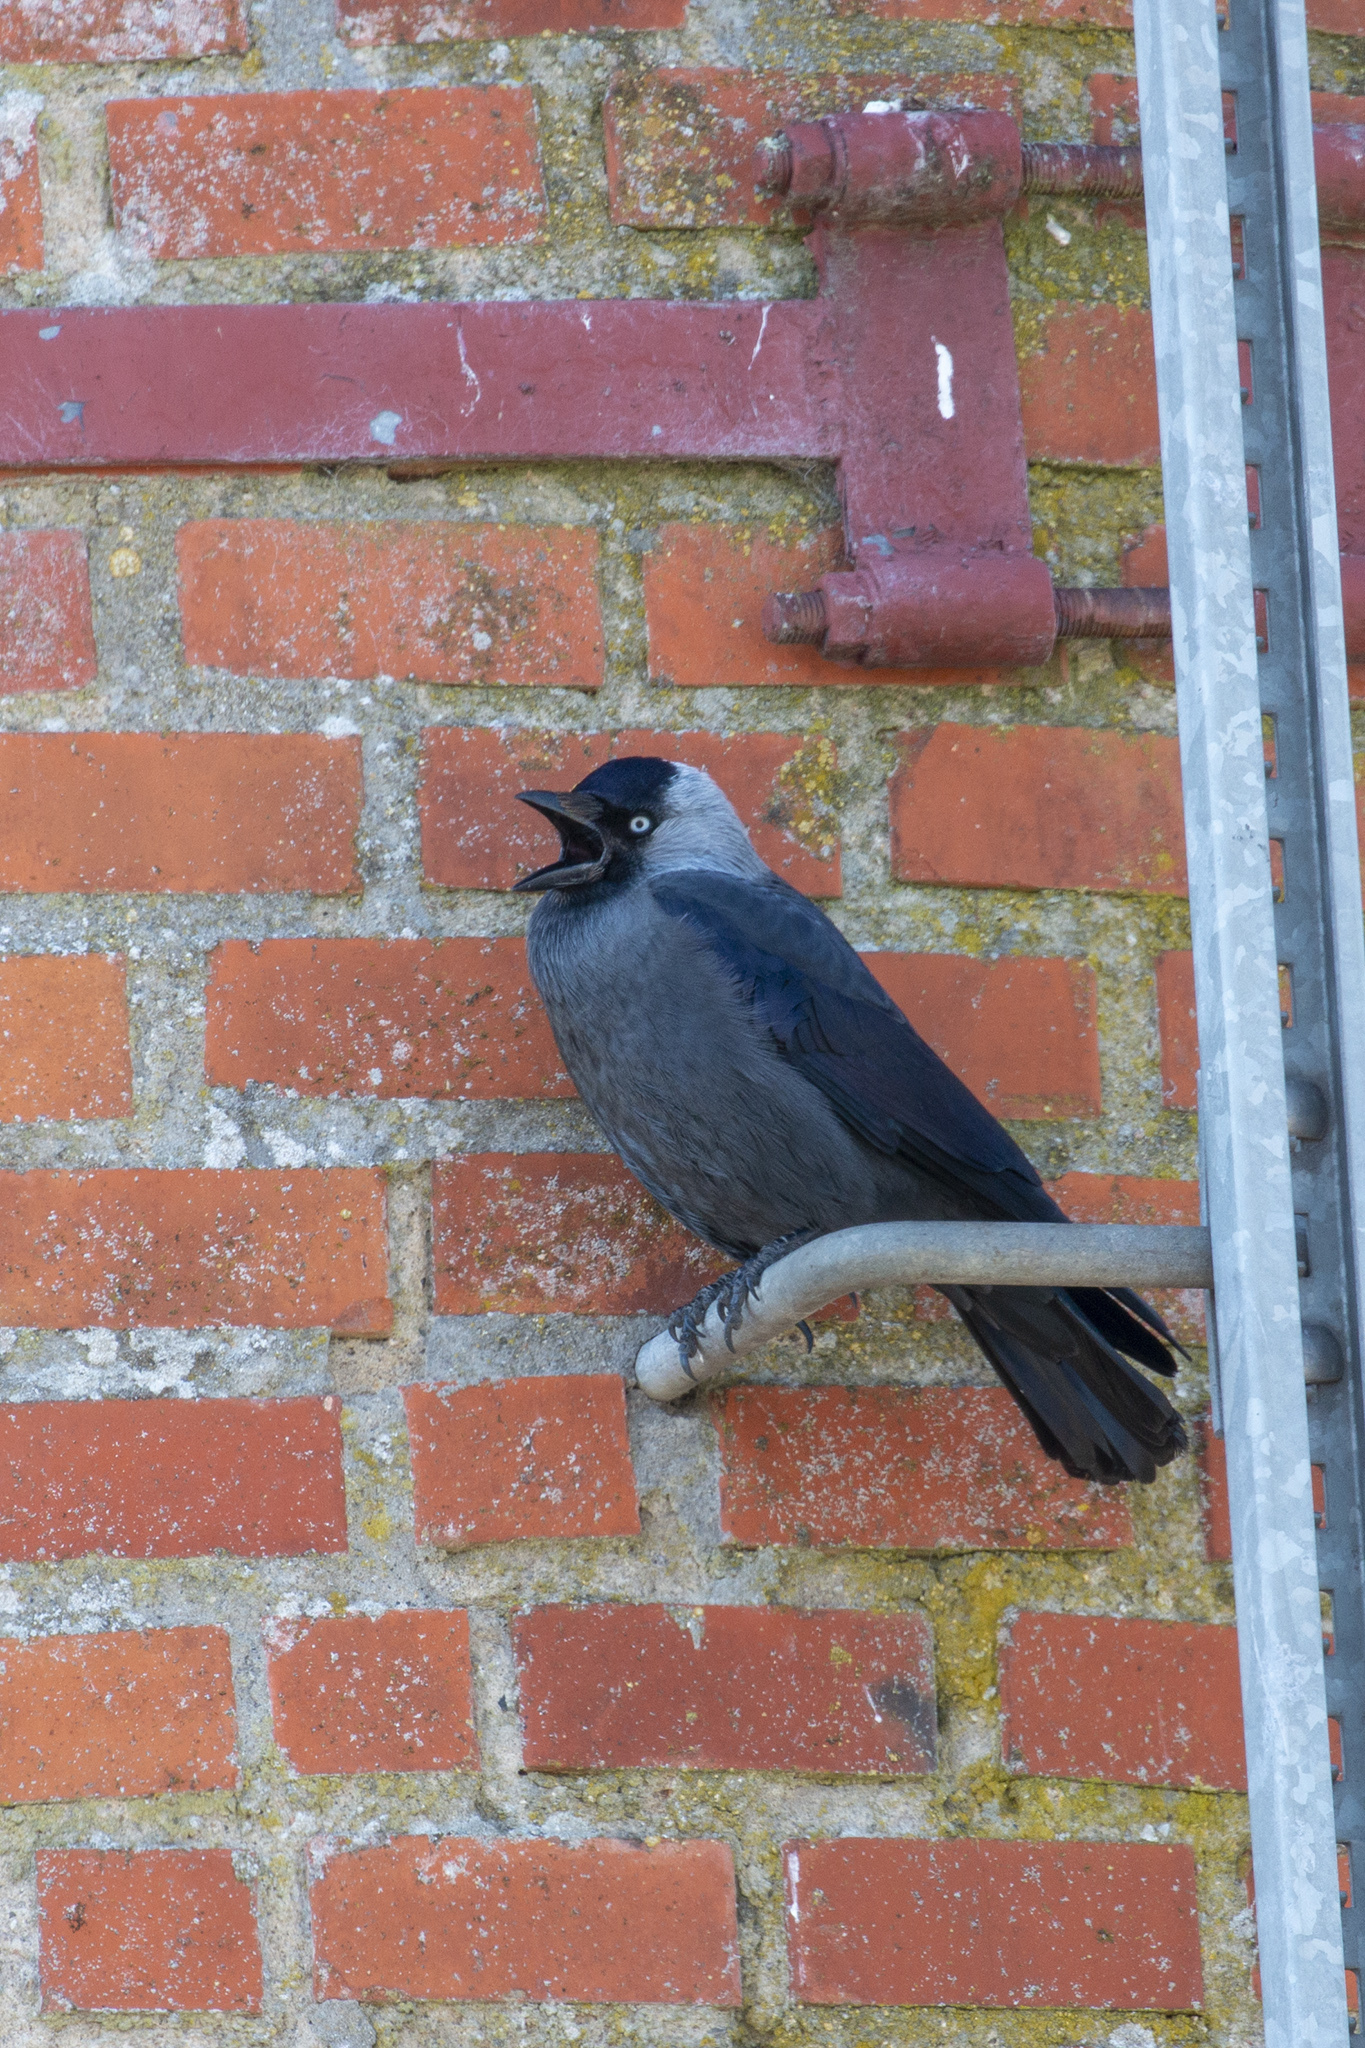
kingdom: Animalia
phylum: Chordata
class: Aves
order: Passeriformes
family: Corvidae
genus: Coloeus
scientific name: Coloeus monedula
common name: Western jackdaw
